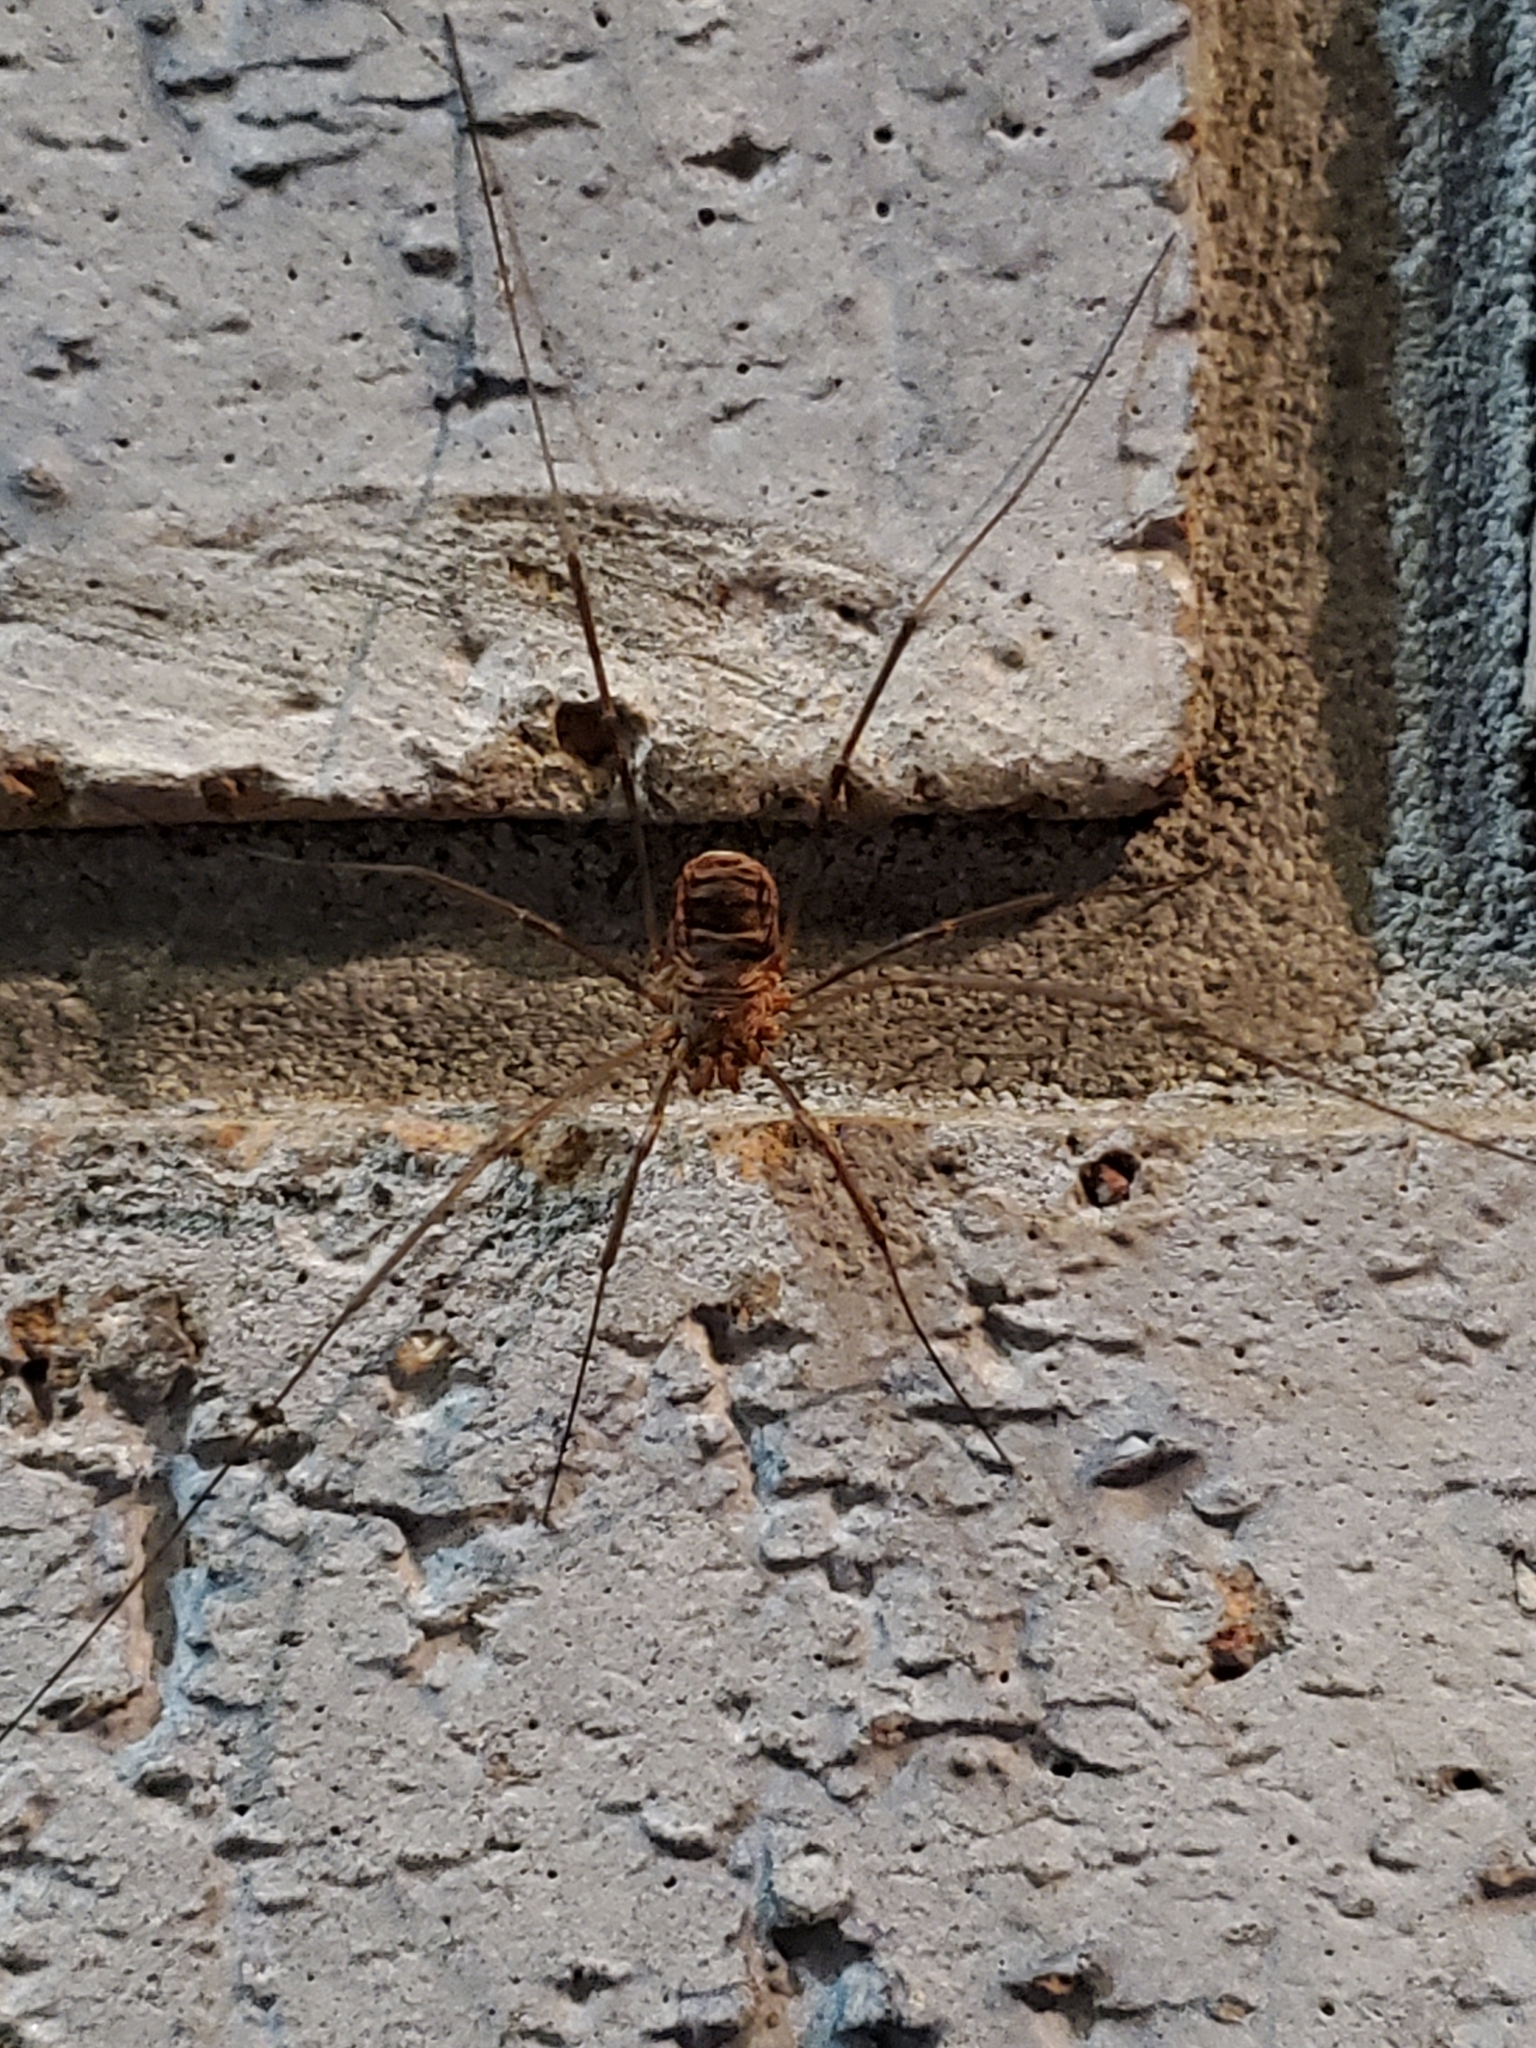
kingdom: Animalia
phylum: Arthropoda
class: Arachnida
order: Opiliones
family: Phalangiidae
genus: Phalangium
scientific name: Phalangium opilio
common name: Daddy longleg
